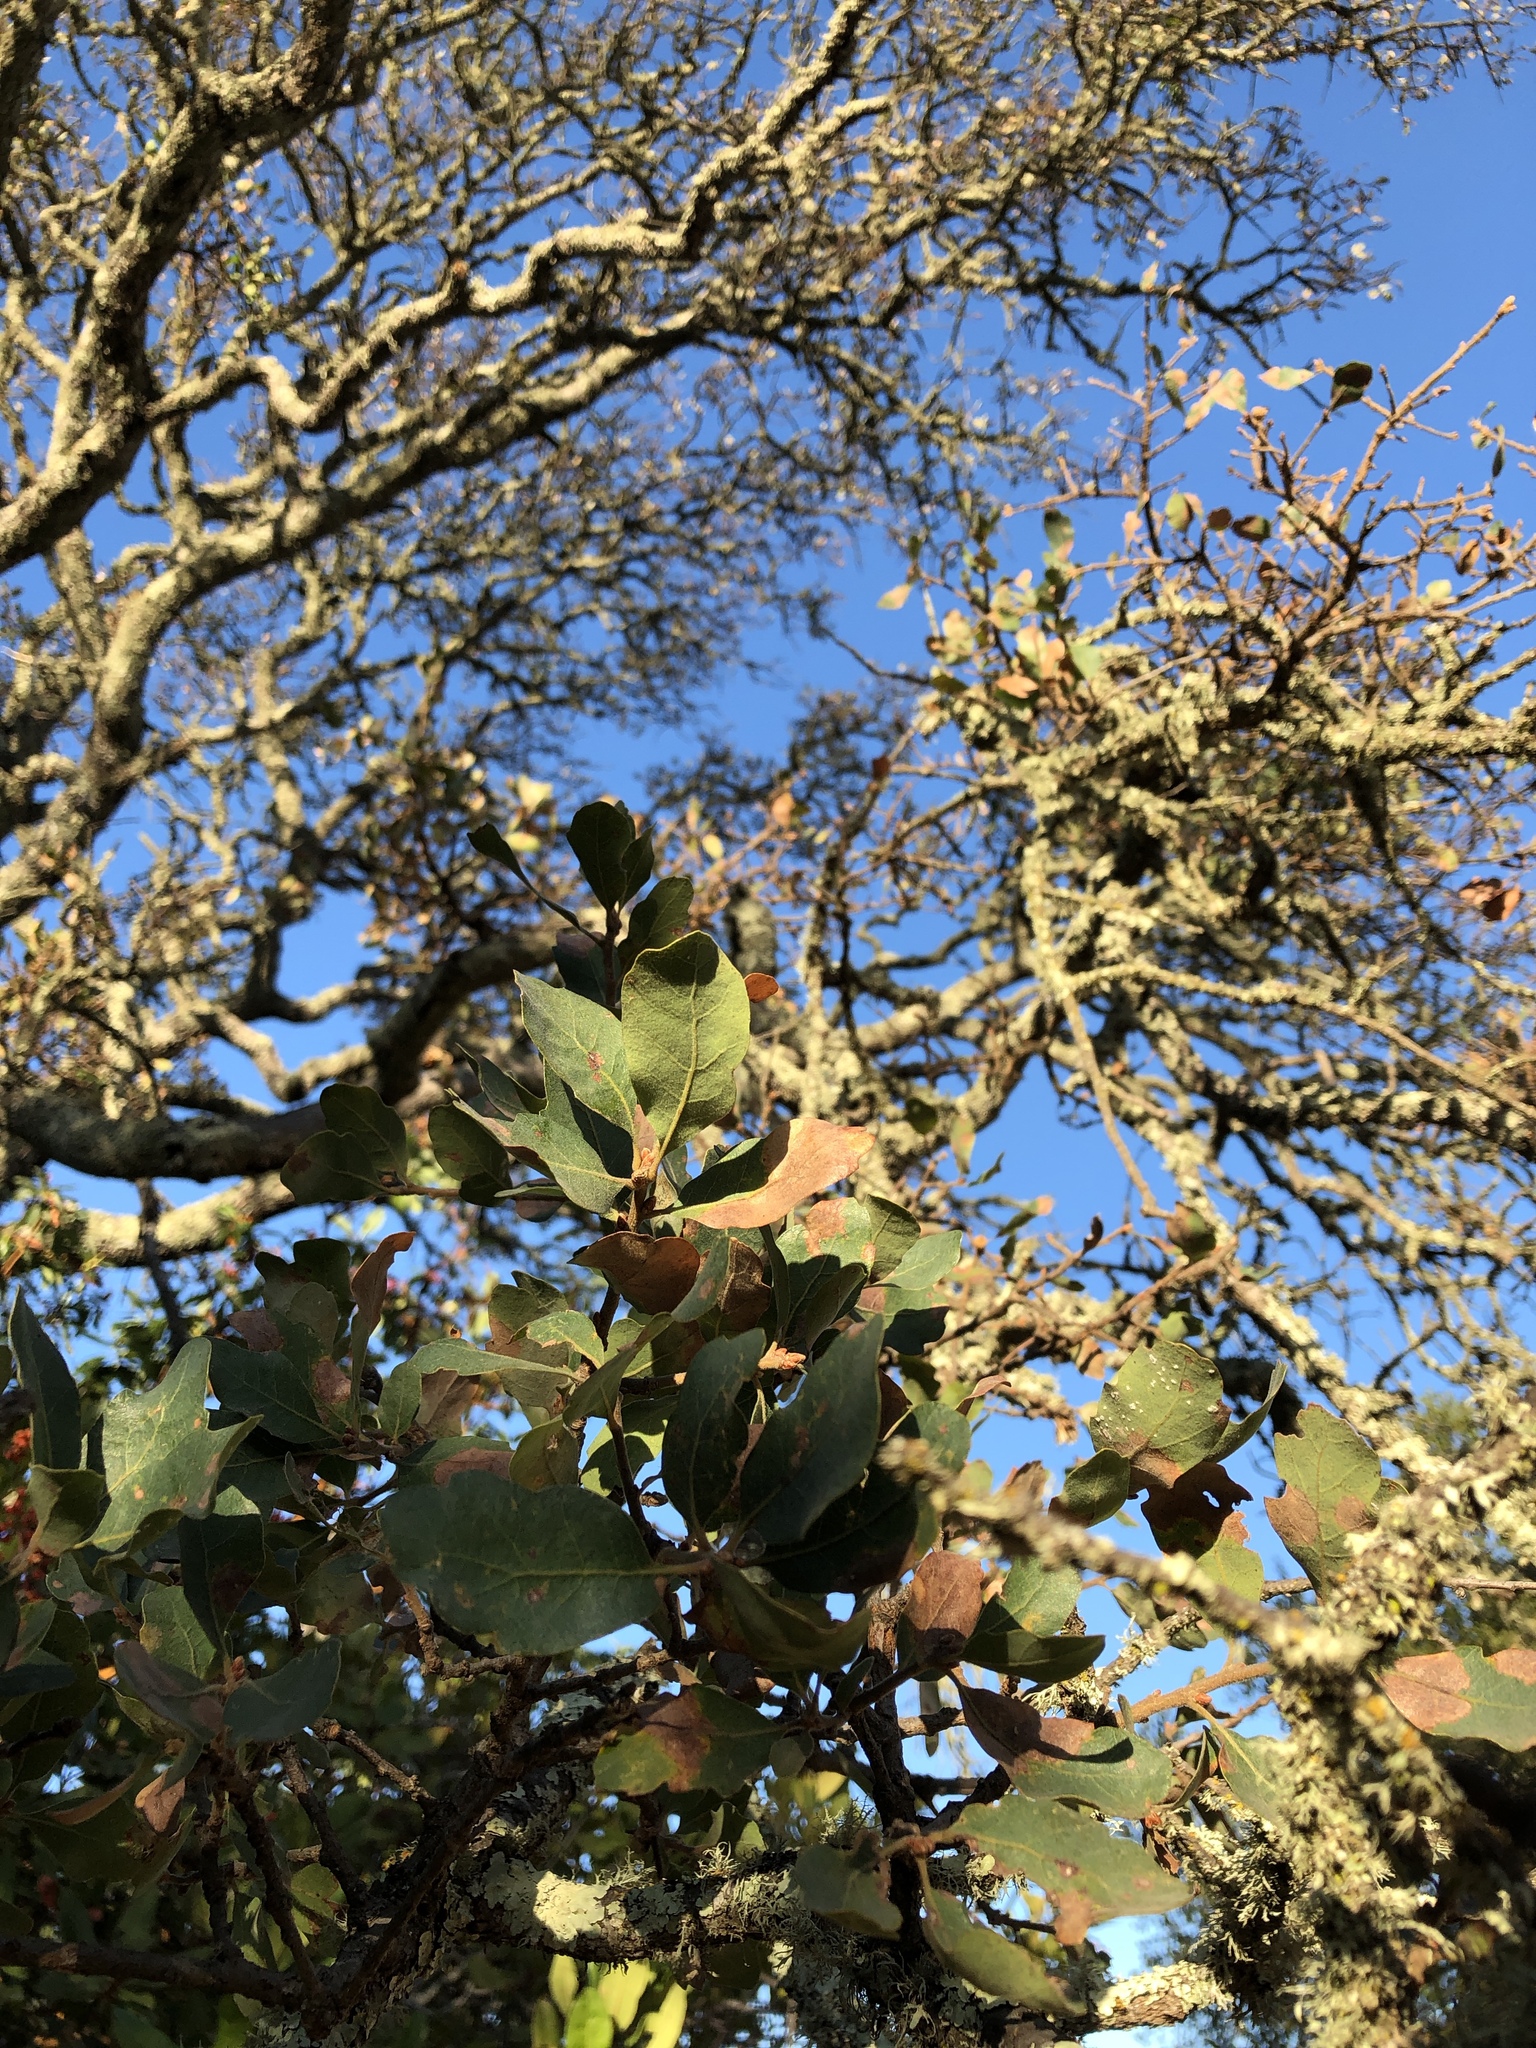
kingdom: Plantae
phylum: Tracheophyta
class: Magnoliopsida
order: Fagales
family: Fagaceae
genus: Quercus
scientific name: Quercus douglasii
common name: Blue oak
